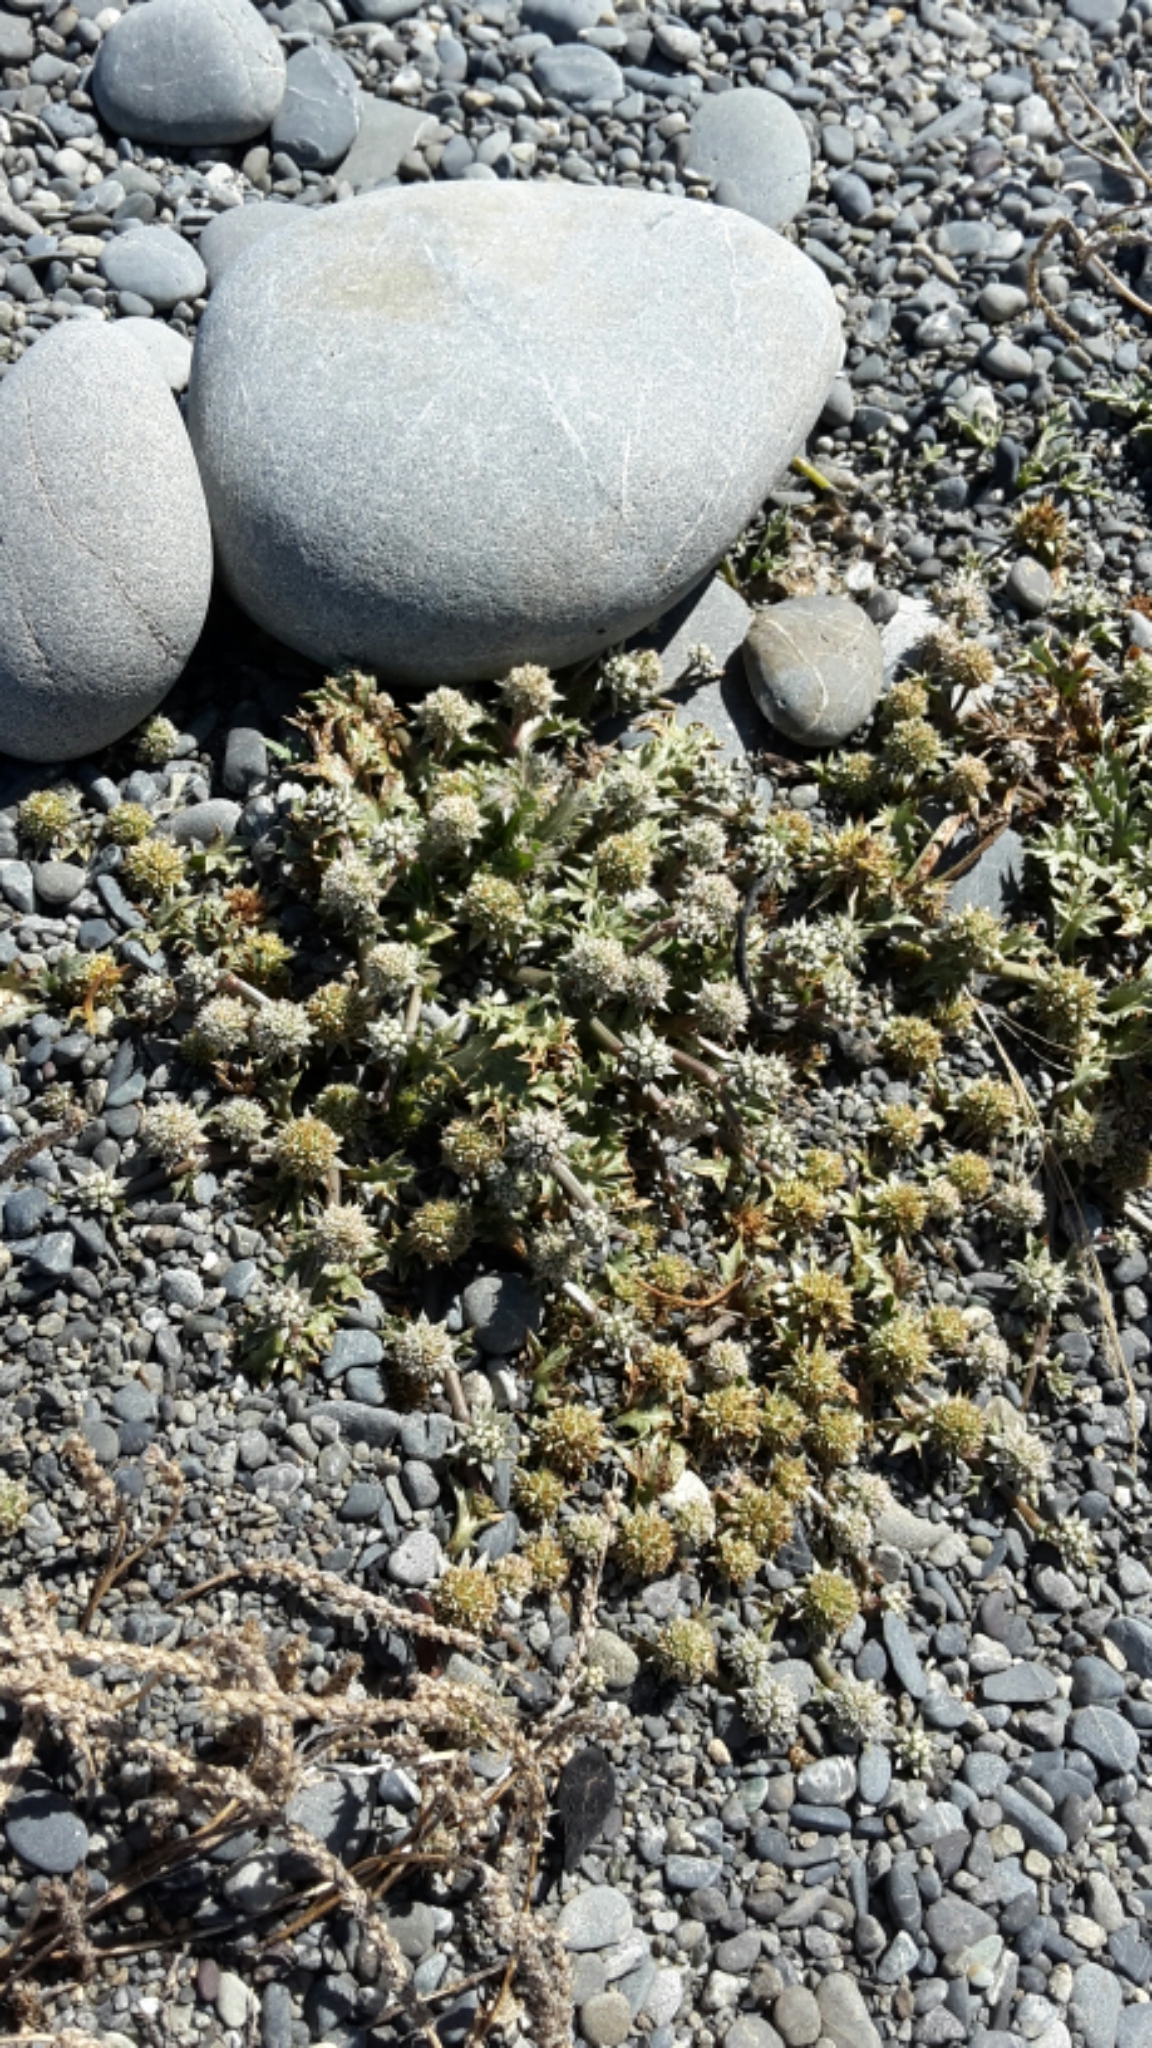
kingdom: Plantae
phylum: Tracheophyta
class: Magnoliopsida
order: Apiales
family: Apiaceae
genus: Eryngium
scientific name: Eryngium vesiculosum
